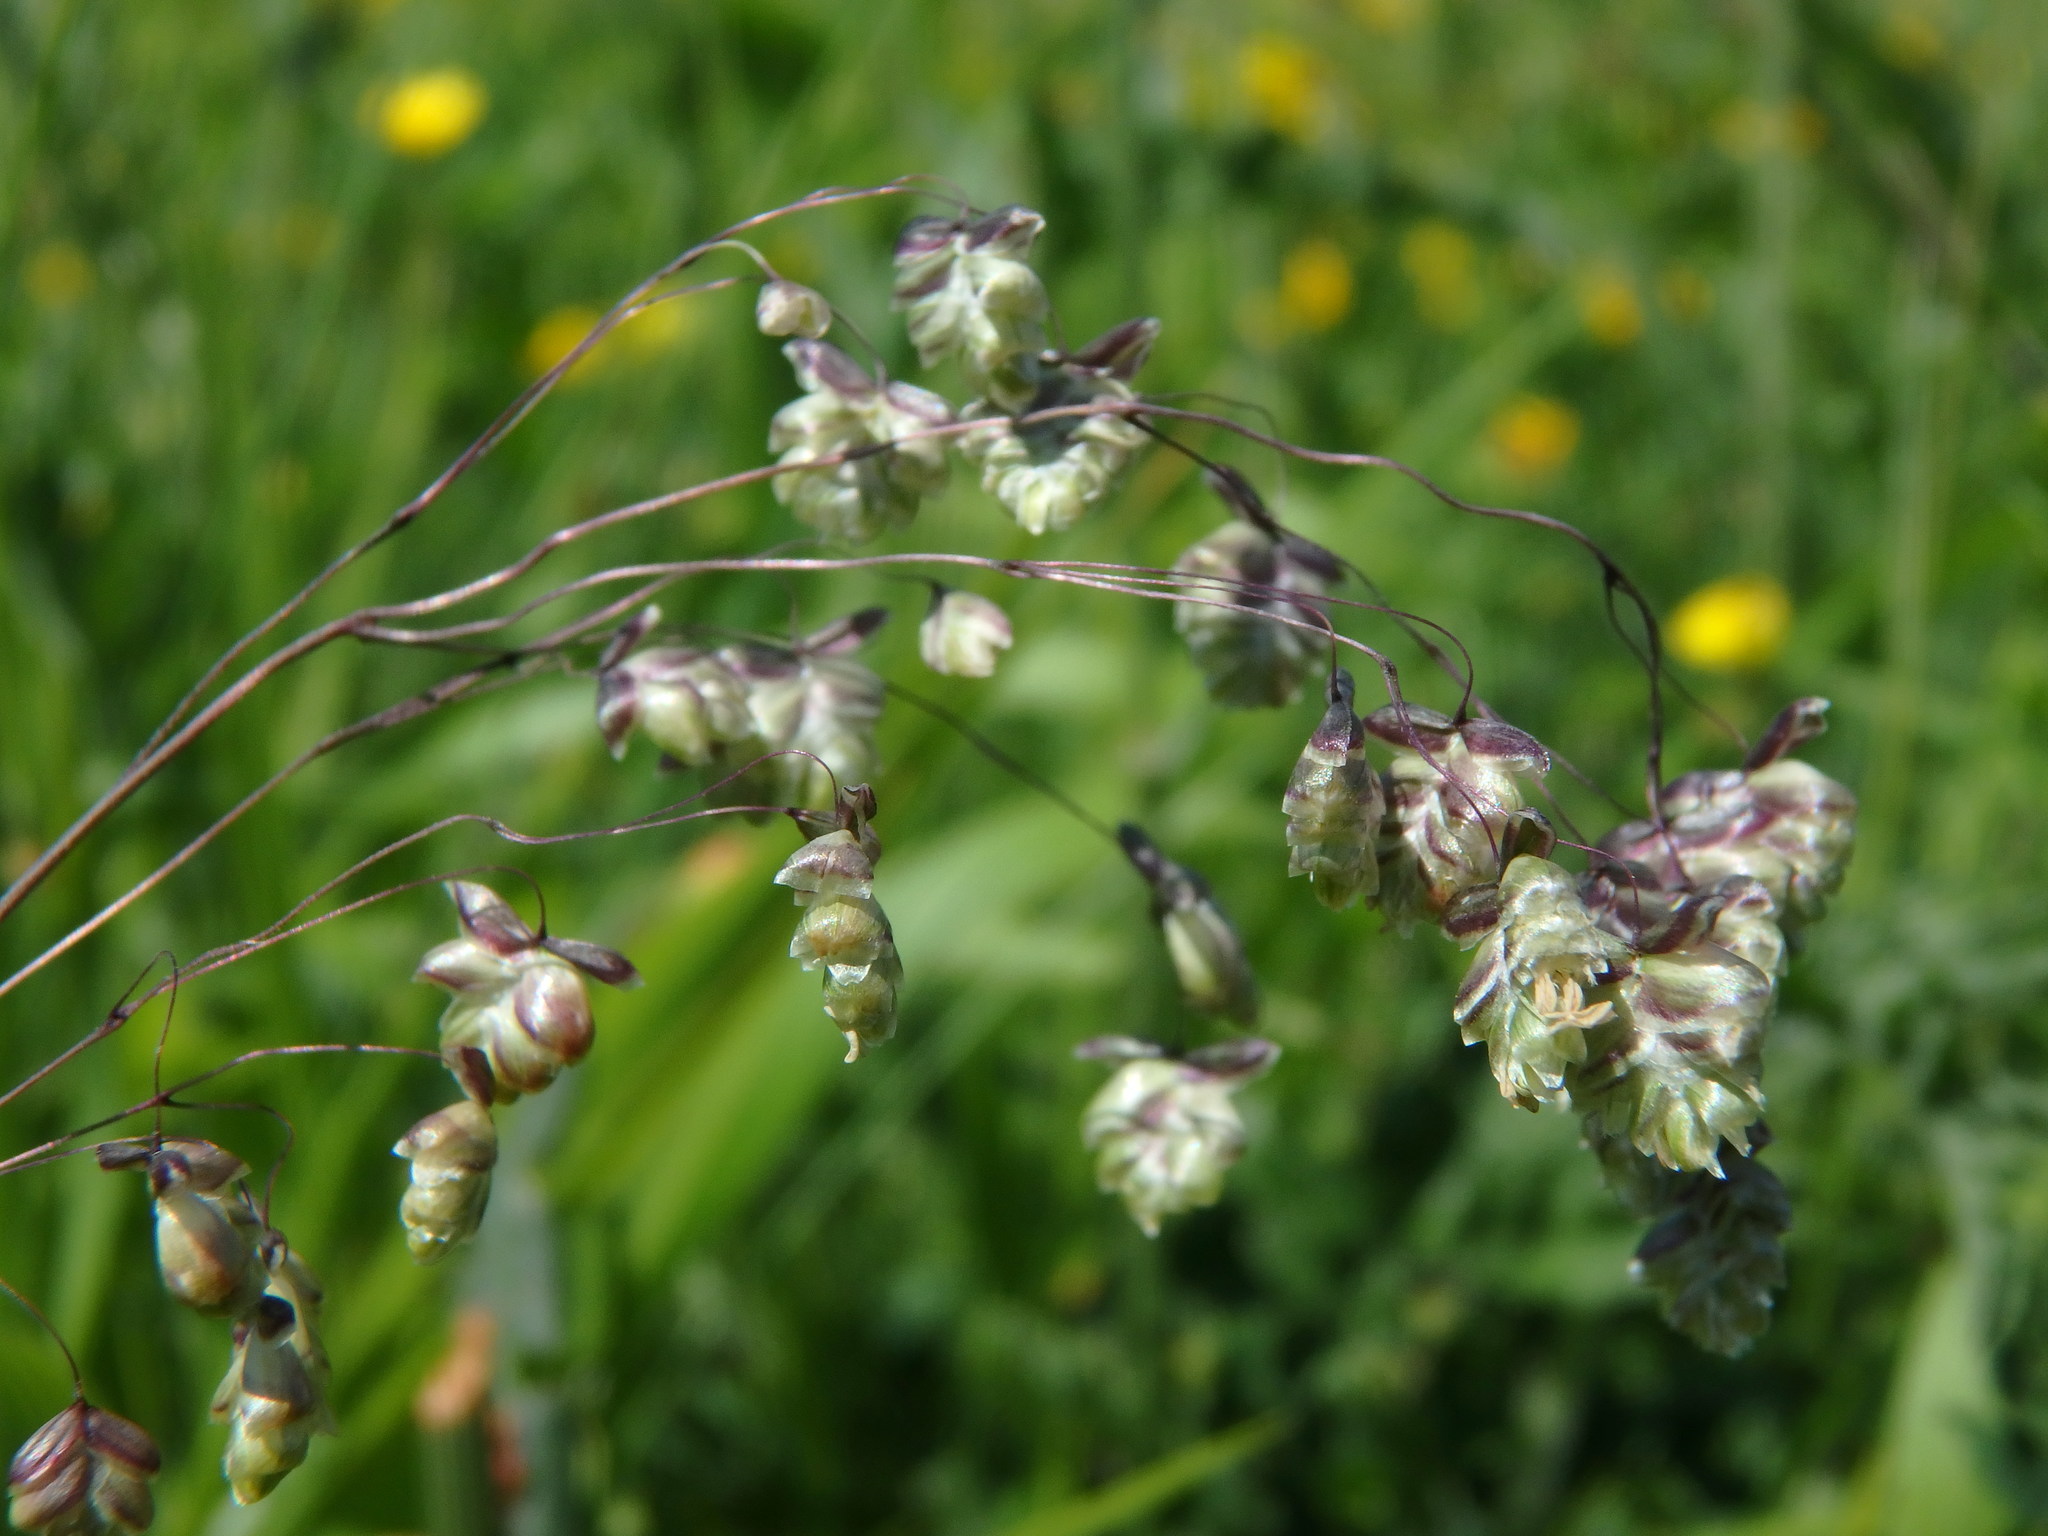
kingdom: Plantae
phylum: Tracheophyta
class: Liliopsida
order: Poales
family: Poaceae
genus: Briza
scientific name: Briza media
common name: Quaking grass
